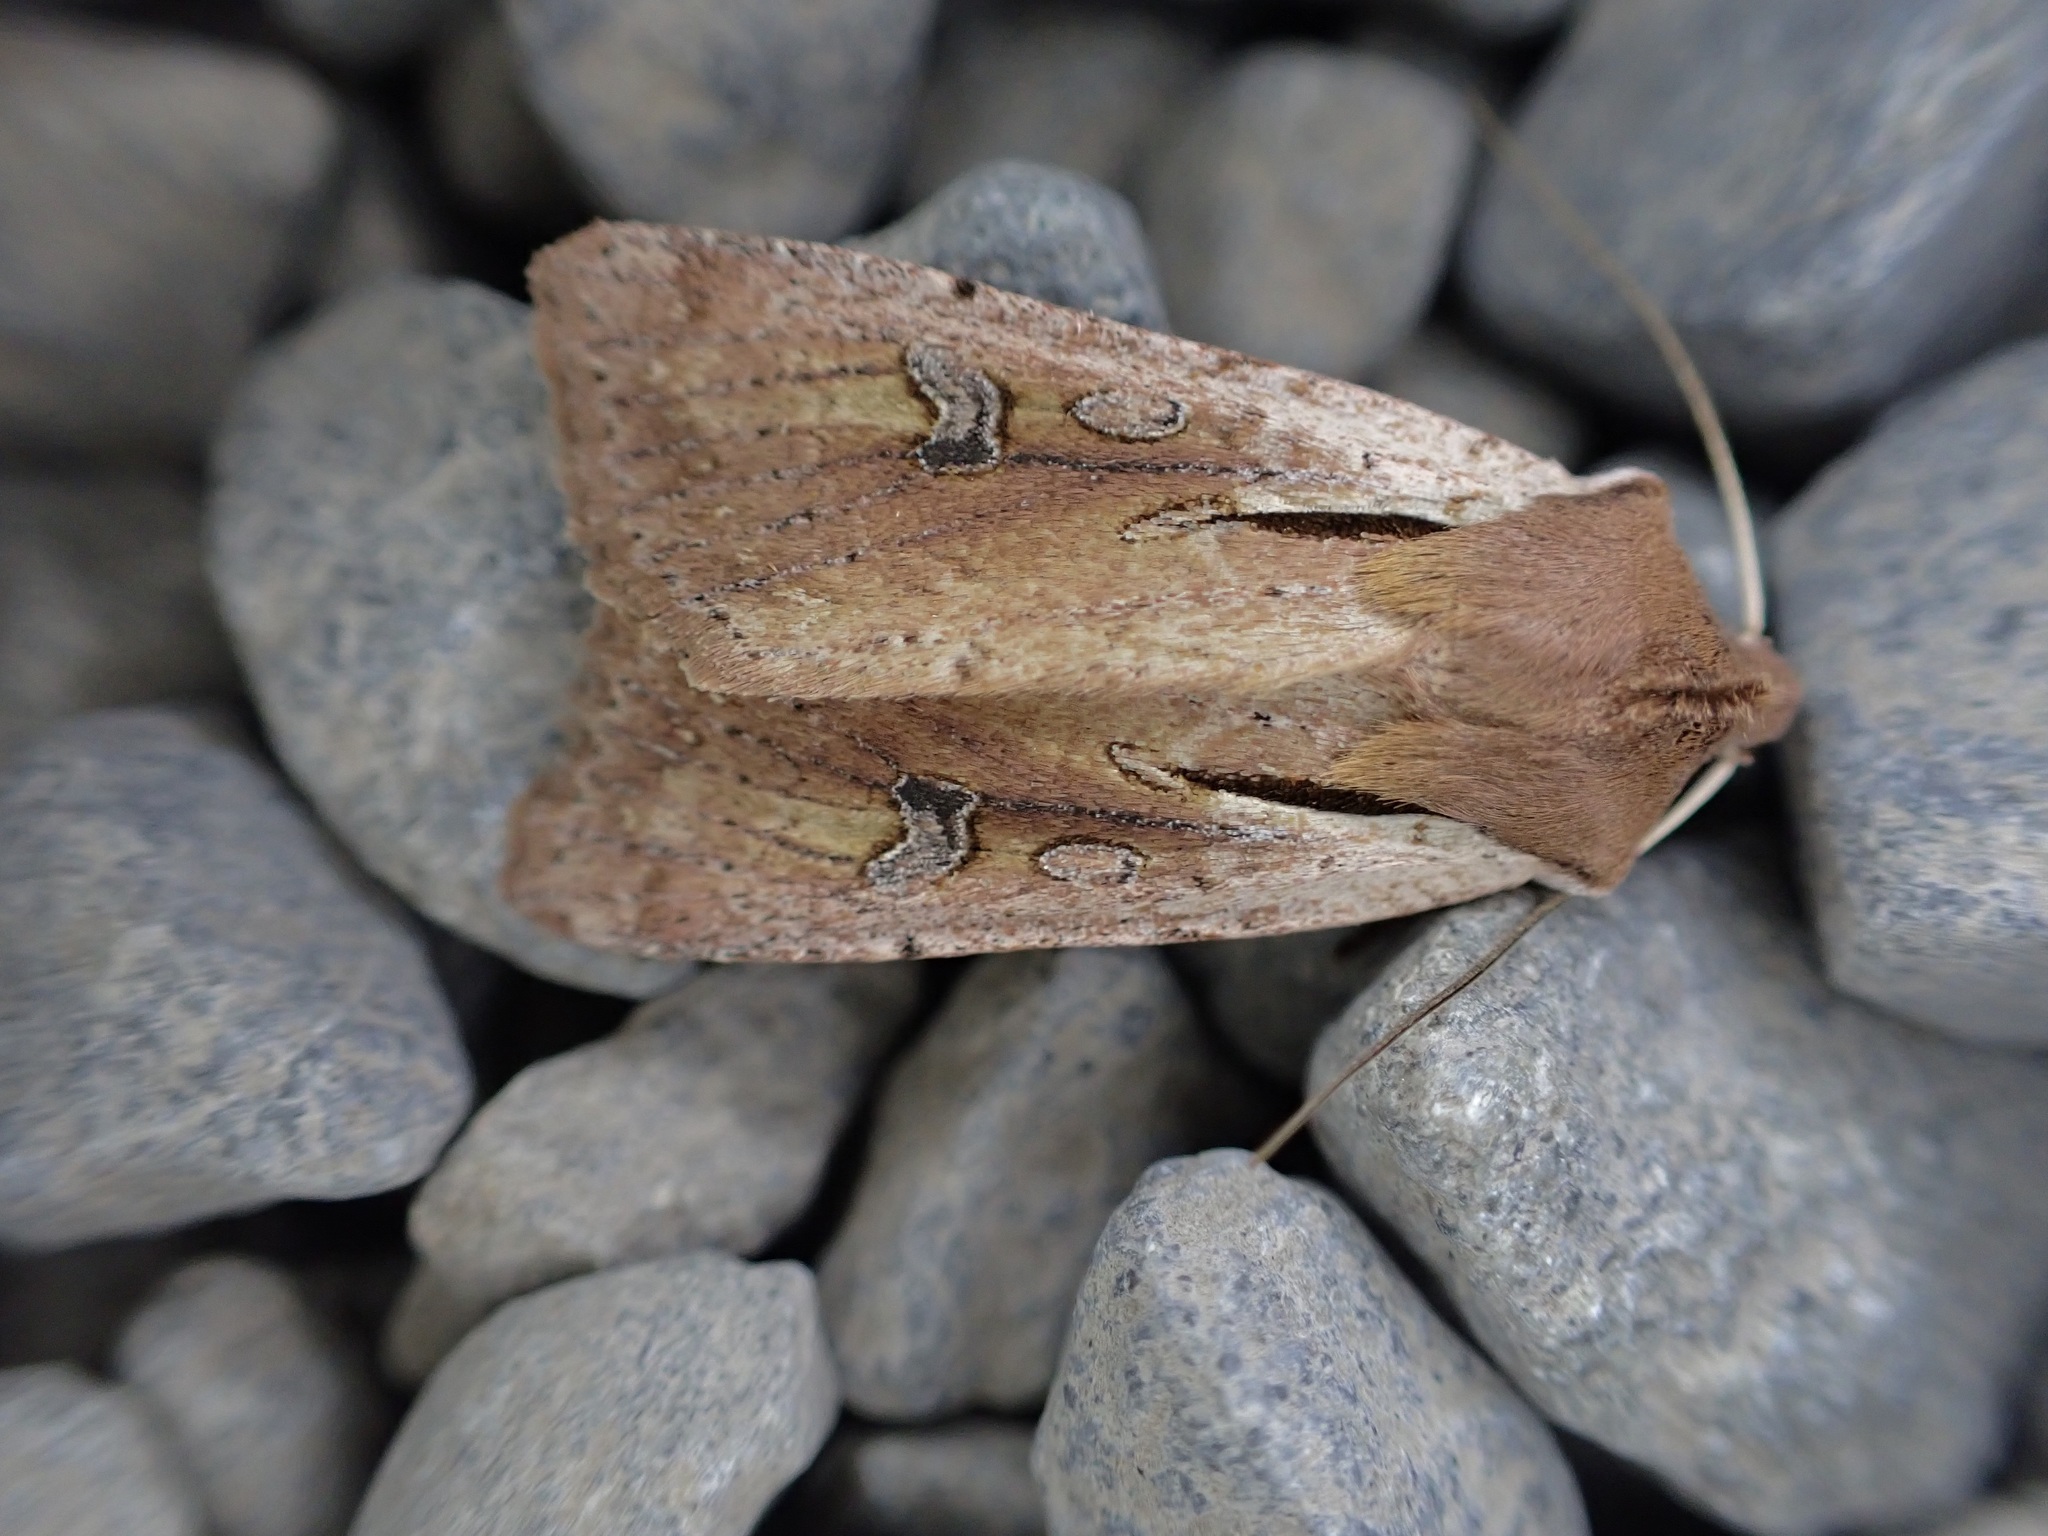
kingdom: Animalia
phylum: Arthropoda
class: Insecta
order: Lepidoptera
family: Noctuidae
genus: Ichneutica
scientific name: Ichneutica atristriga
